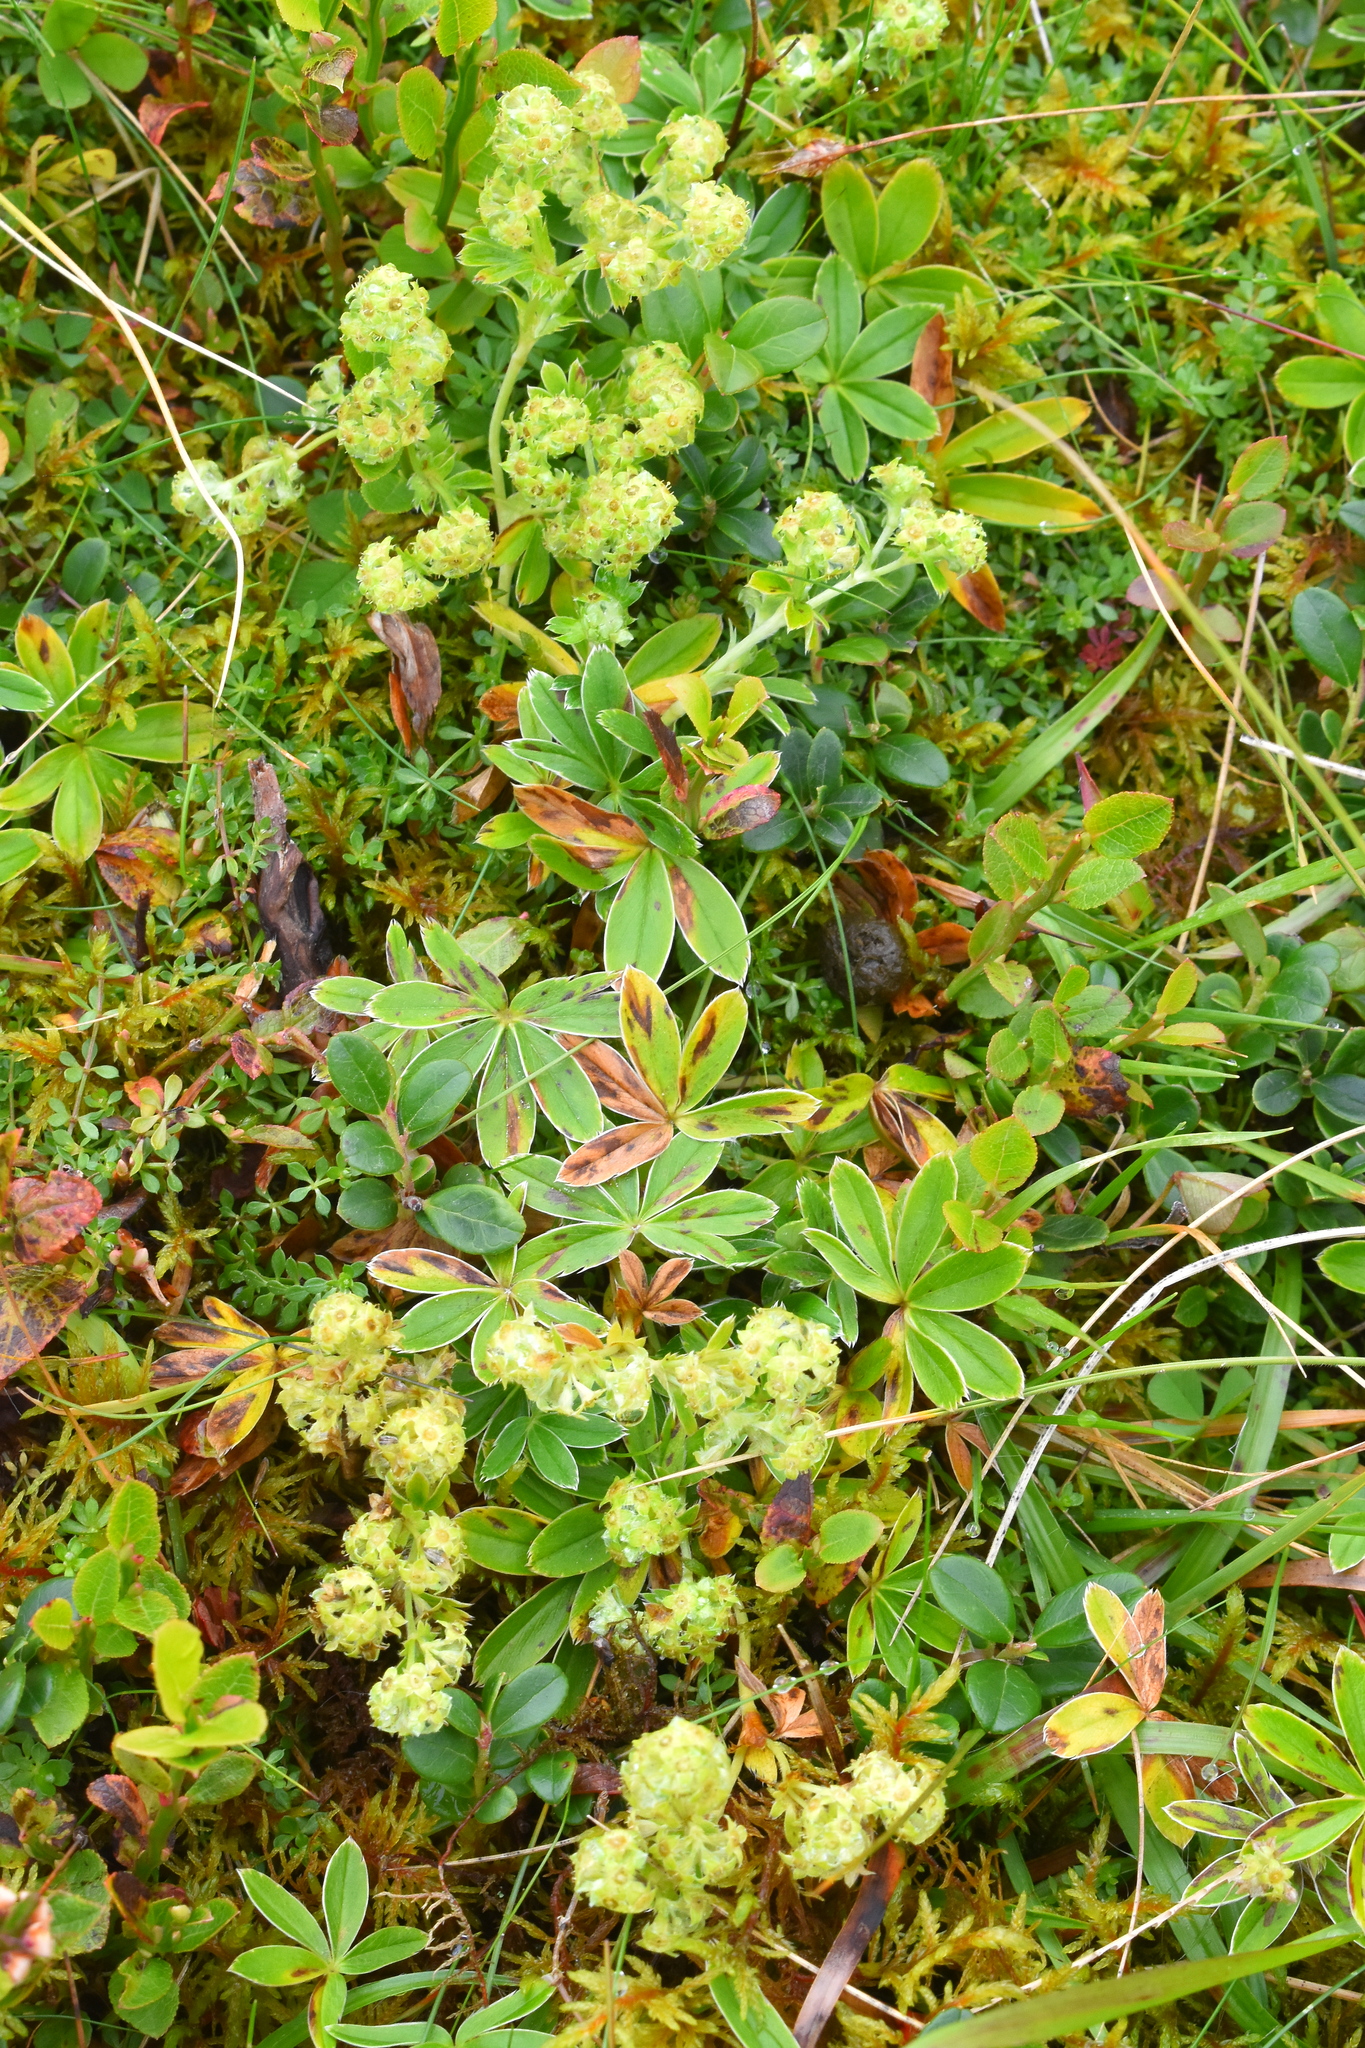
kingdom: Plantae
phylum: Tracheophyta
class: Magnoliopsida
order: Rosales
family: Rosaceae
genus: Alchemilla
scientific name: Alchemilla alpina
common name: Alpine lady's-mantle
